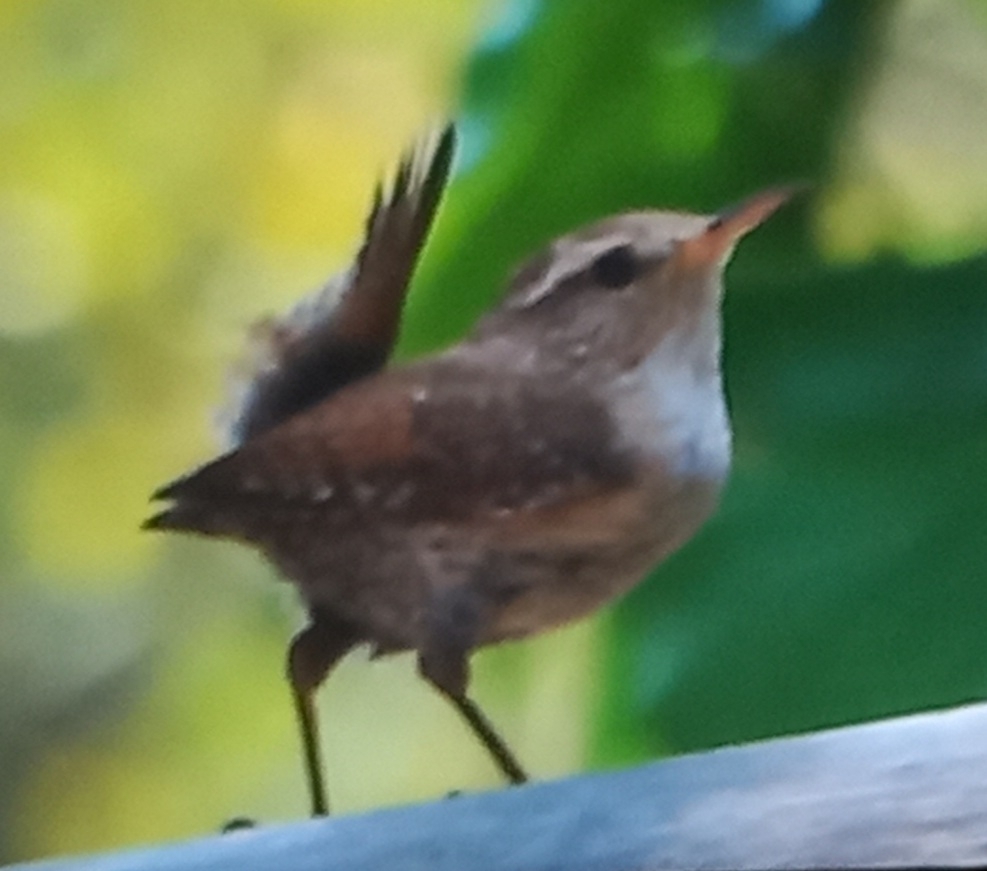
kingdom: Animalia
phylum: Chordata
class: Aves
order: Passeriformes
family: Troglodytidae
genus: Troglodytes
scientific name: Troglodytes troglodytes
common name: Eurasian wren
